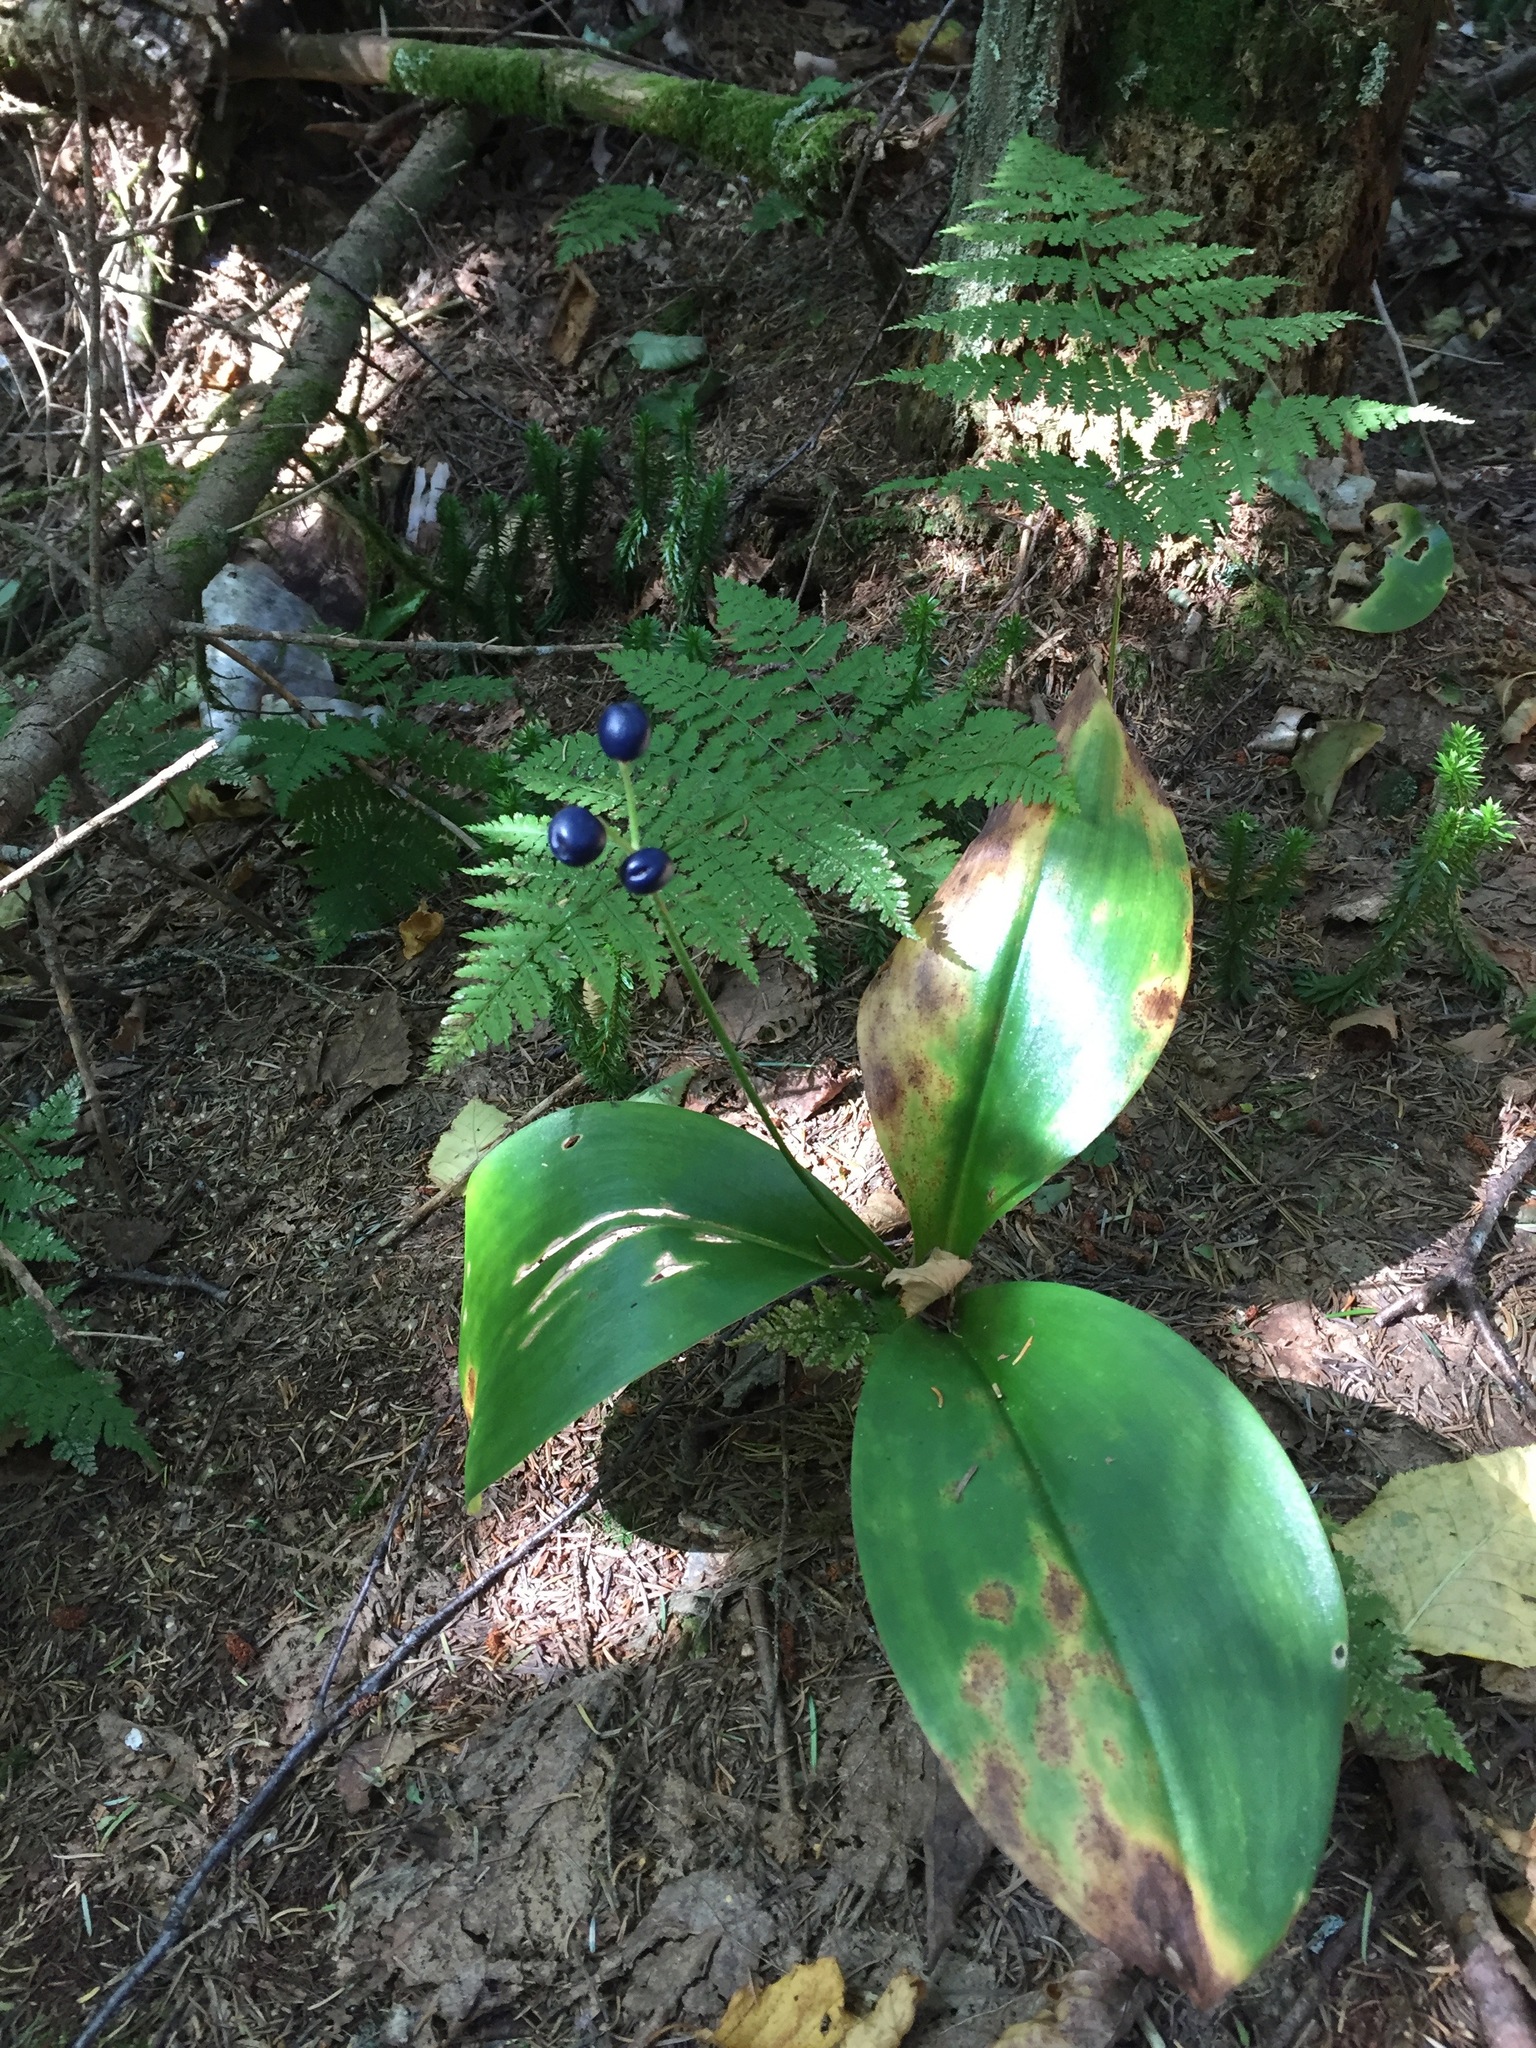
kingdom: Plantae
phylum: Tracheophyta
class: Liliopsida
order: Liliales
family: Liliaceae
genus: Clintonia
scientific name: Clintonia borealis
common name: Yellow clintonia
